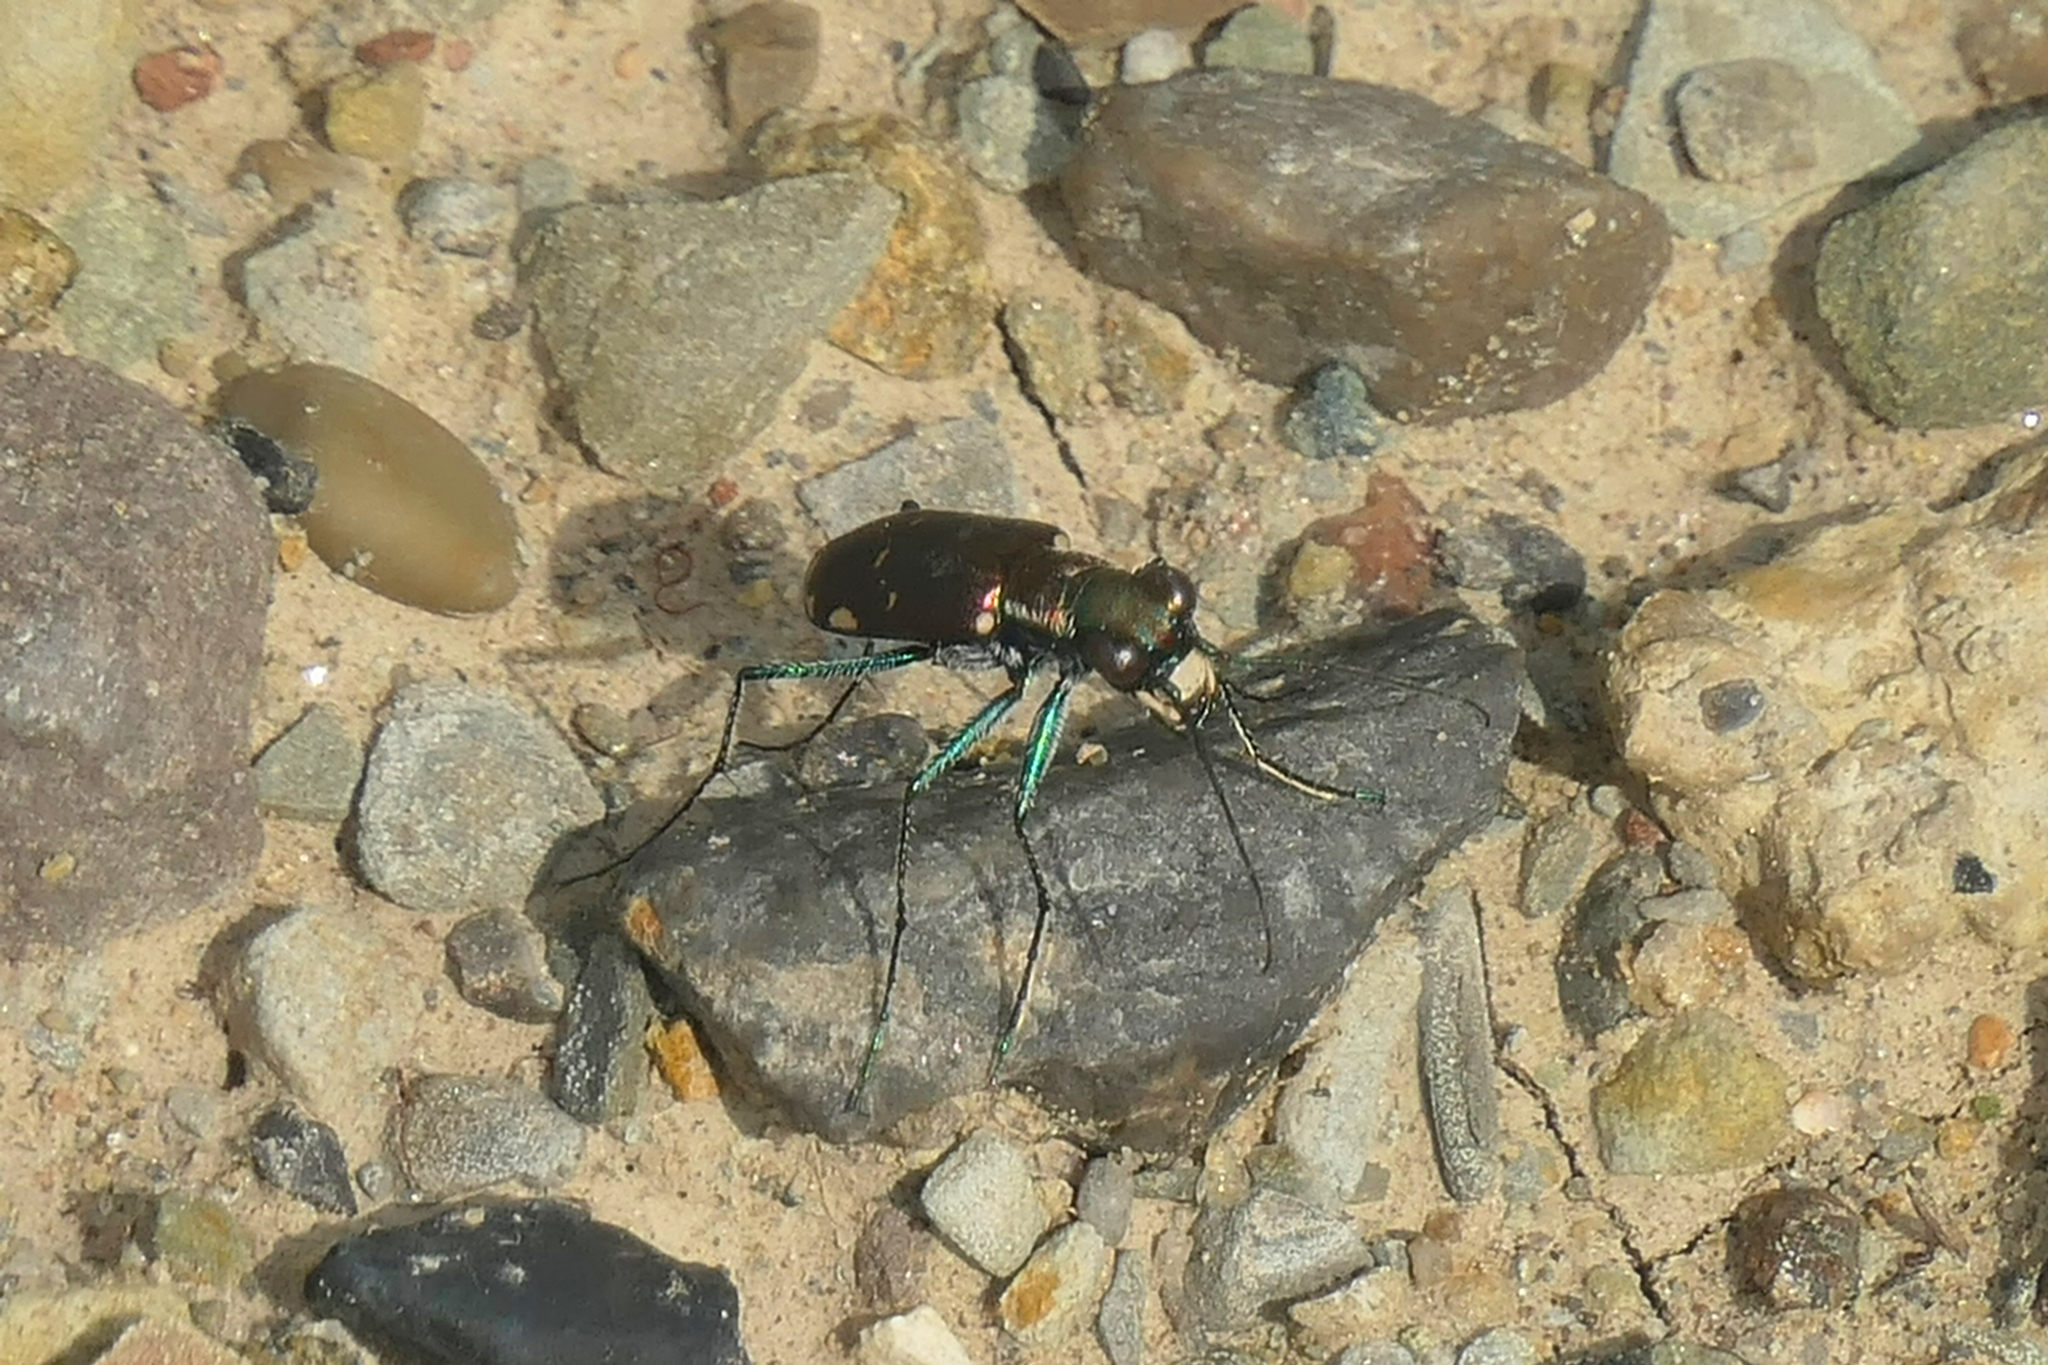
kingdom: Animalia
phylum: Arthropoda
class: Insecta
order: Coleoptera
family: Carabidae
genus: Cicindela
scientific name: Cicindela rufiventris
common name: Eastern red-bellied tiger beetle
